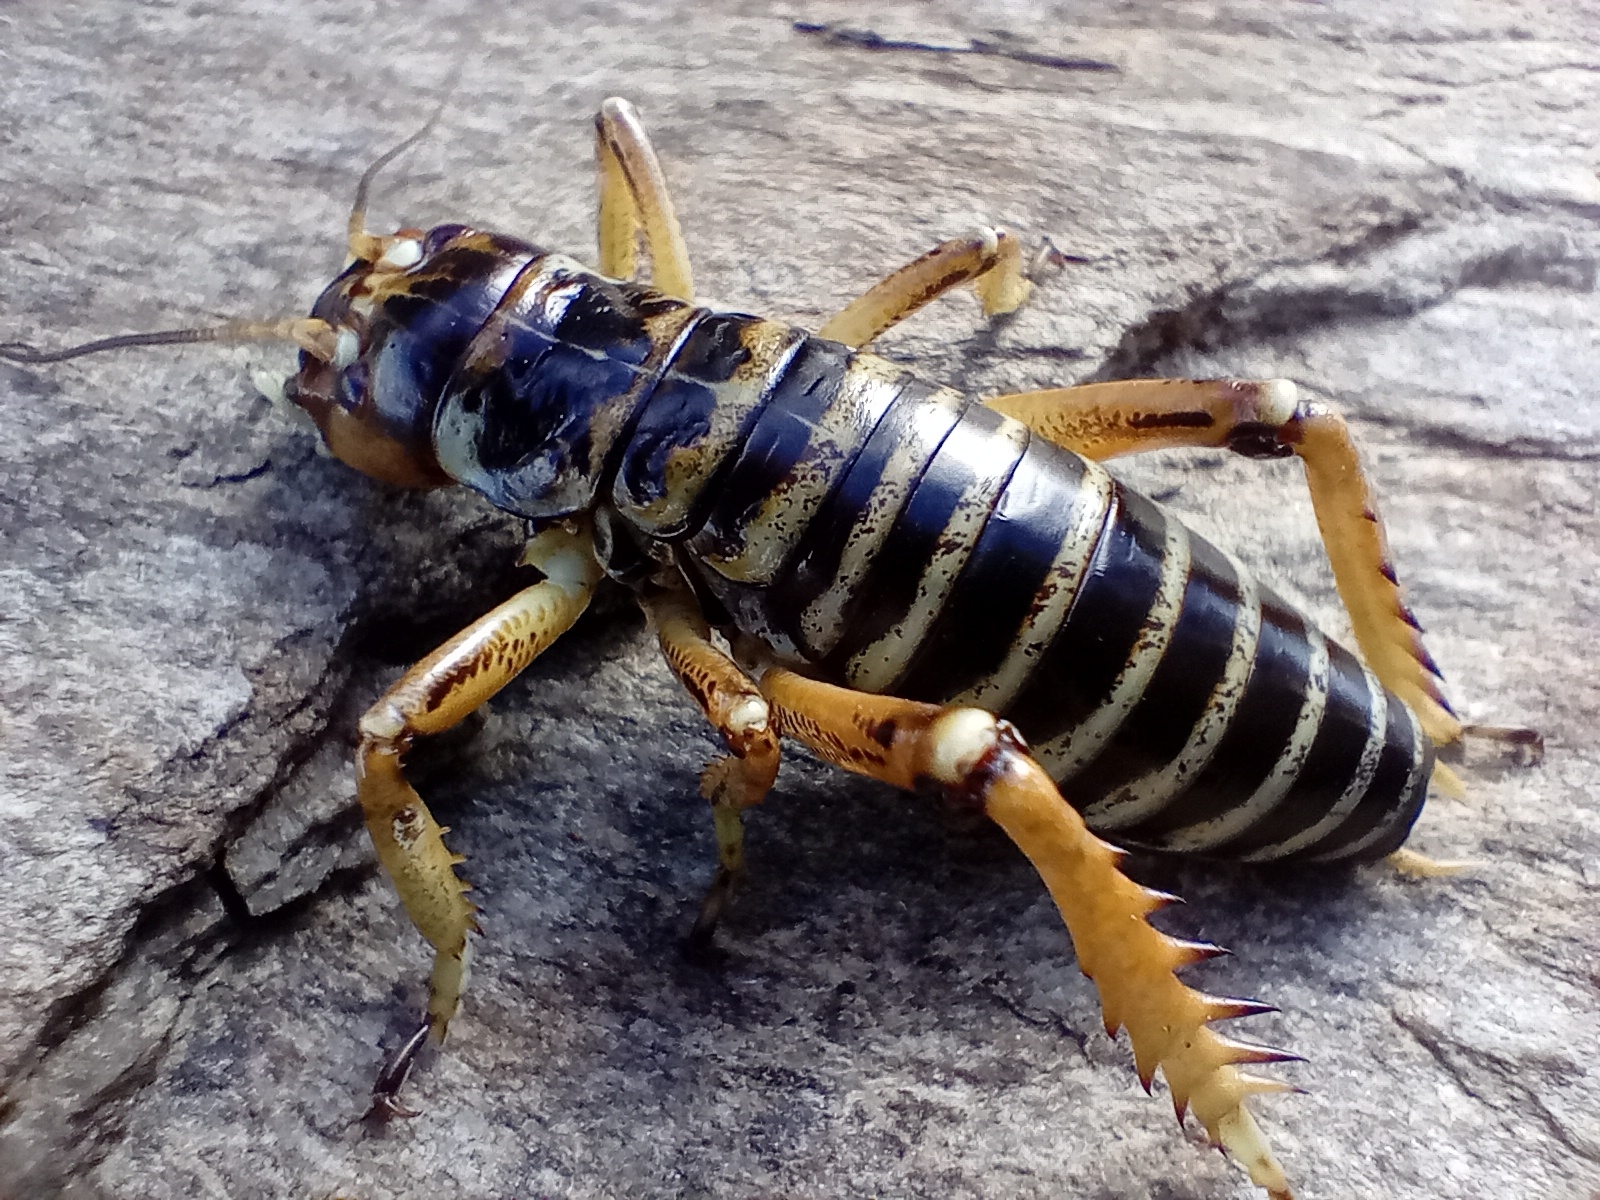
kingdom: Animalia
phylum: Arthropoda
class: Insecta
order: Orthoptera
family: Anostostomatidae
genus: Hemideina
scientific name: Hemideina maori
